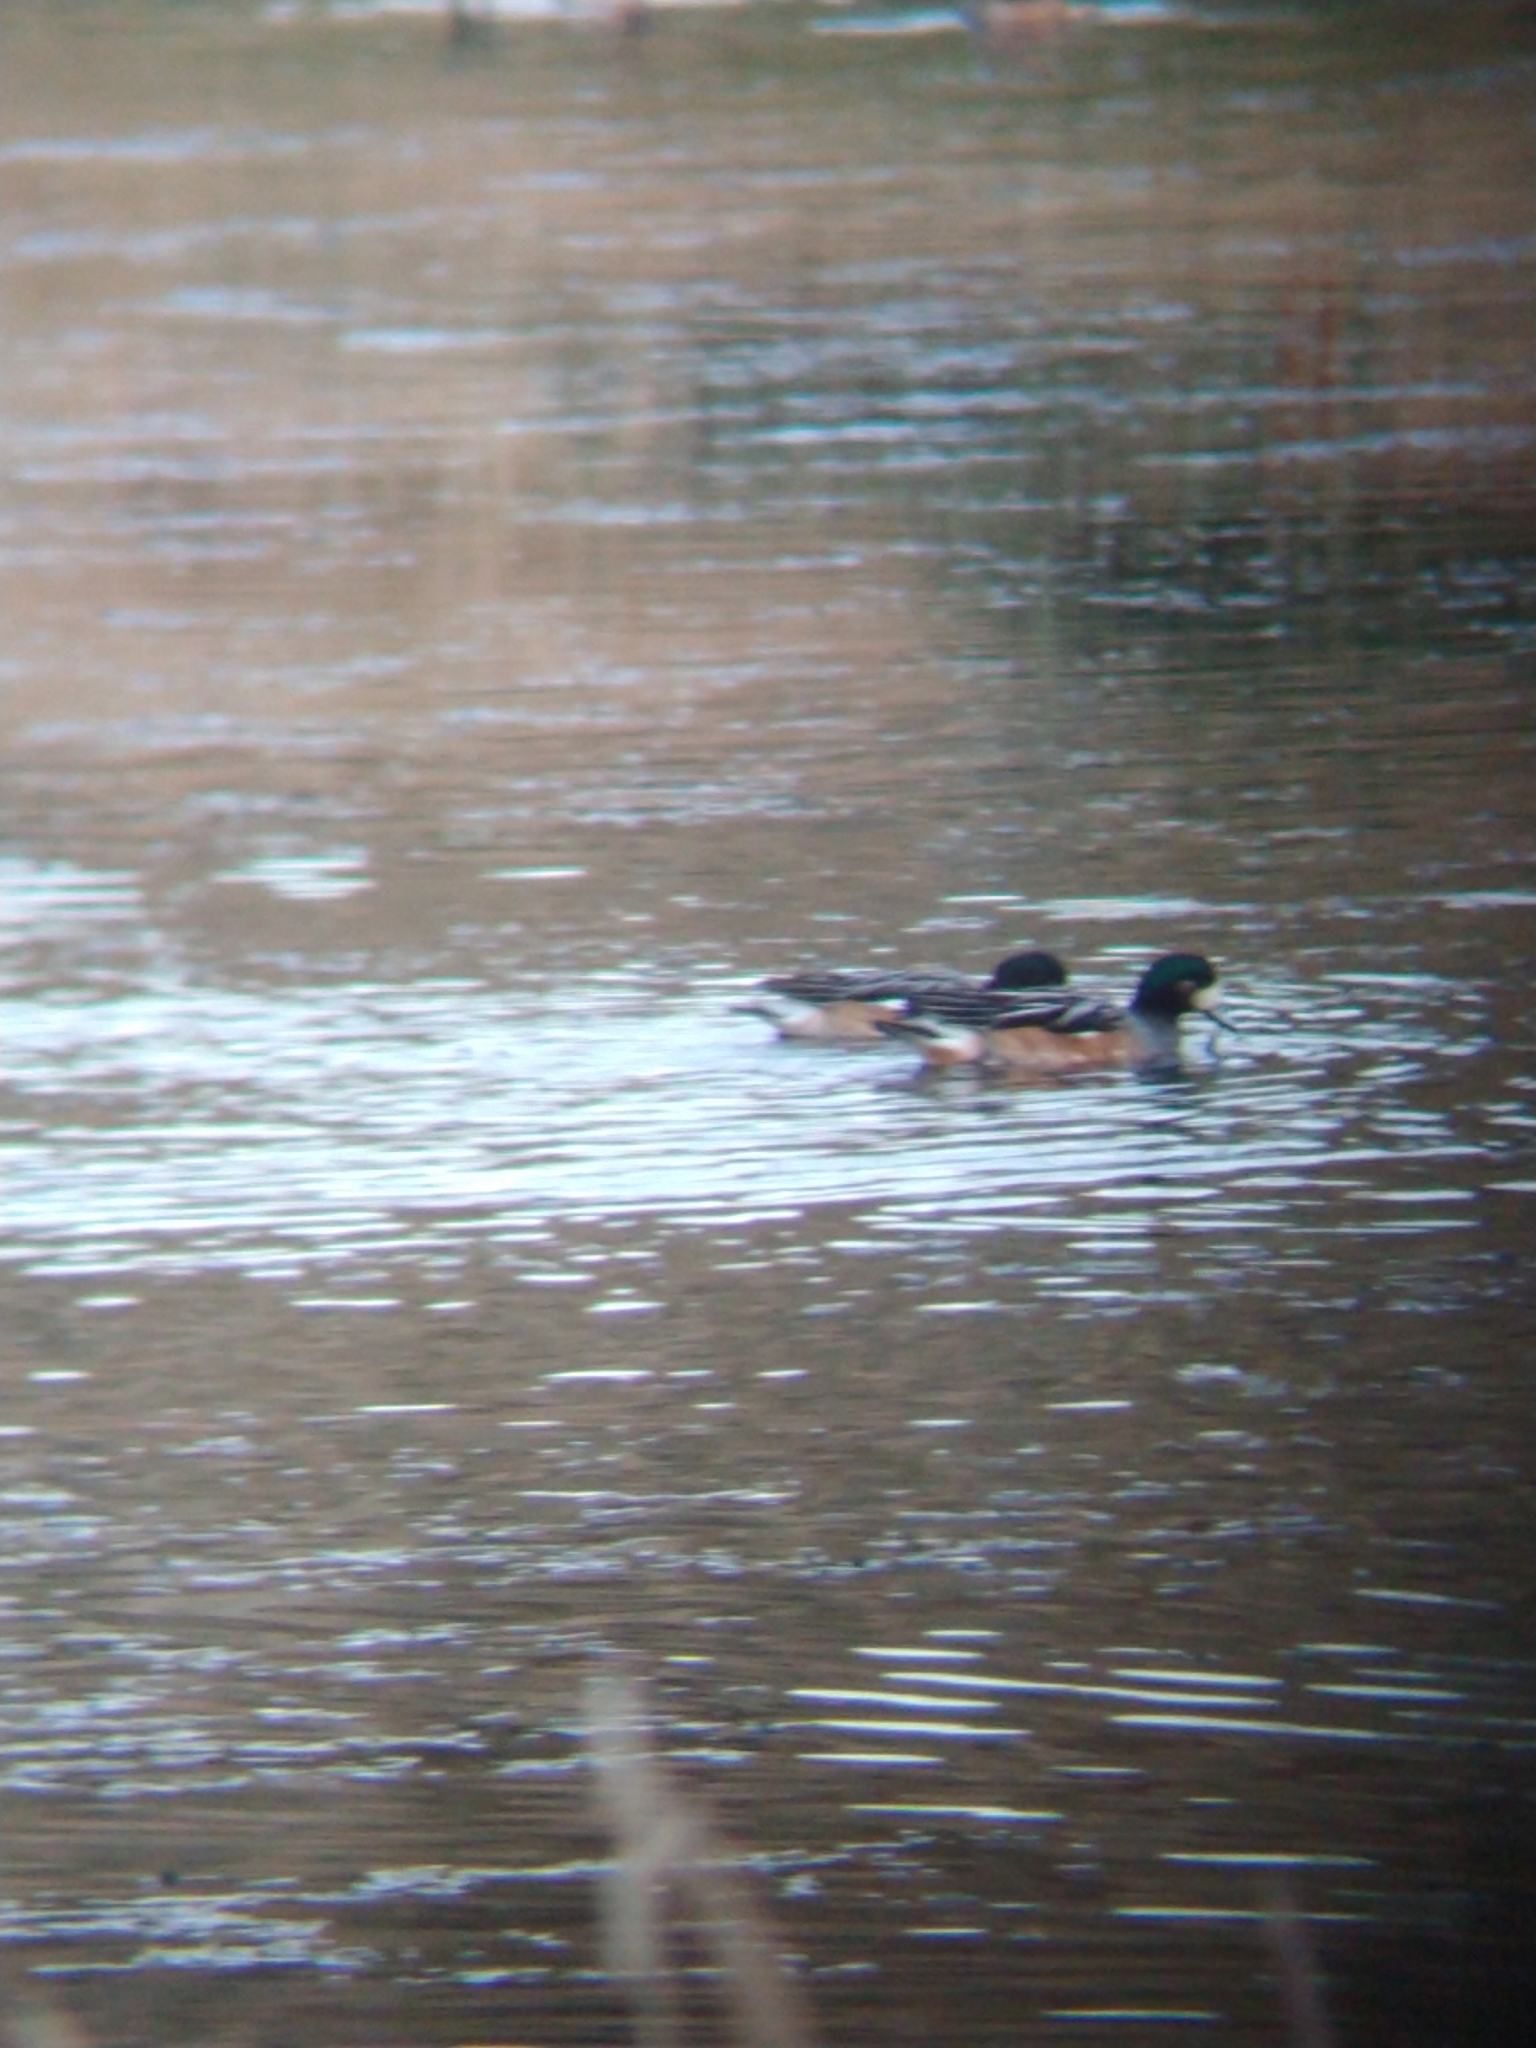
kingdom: Animalia
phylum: Chordata
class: Aves
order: Anseriformes
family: Anatidae
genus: Mareca
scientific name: Mareca sibilatrix
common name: Chiloe wigeon
